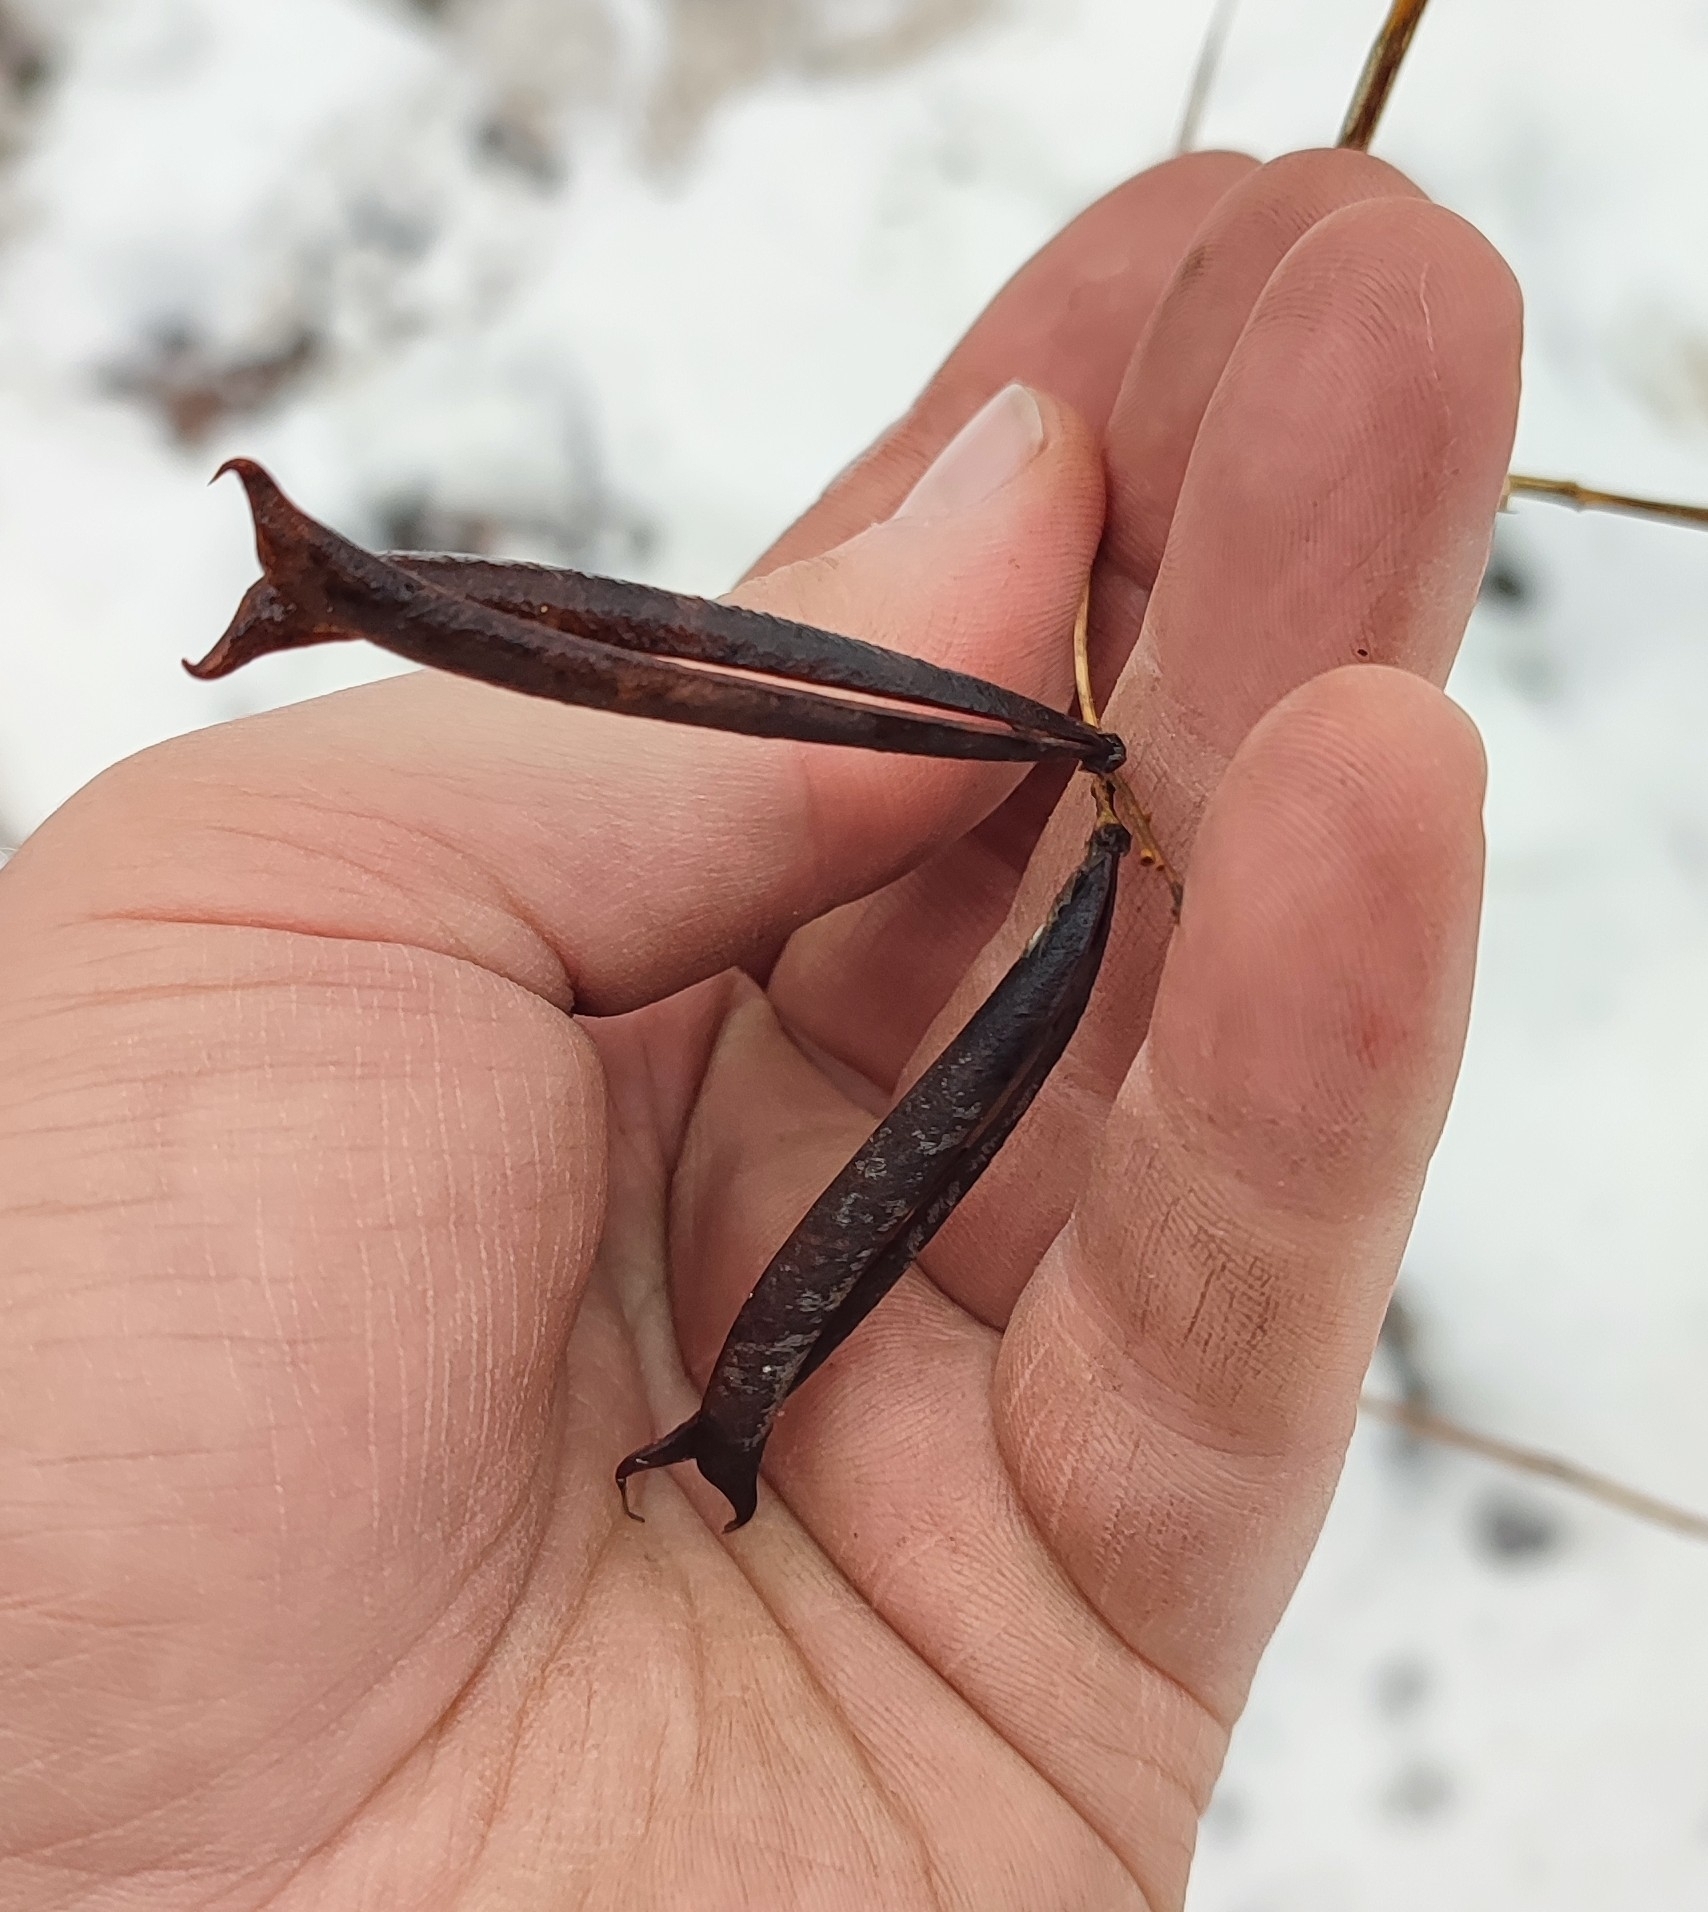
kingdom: Plantae
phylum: Tracheophyta
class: Magnoliopsida
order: Fabales
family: Fabaceae
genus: Lathyrus
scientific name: Lathyrus pisiformis
